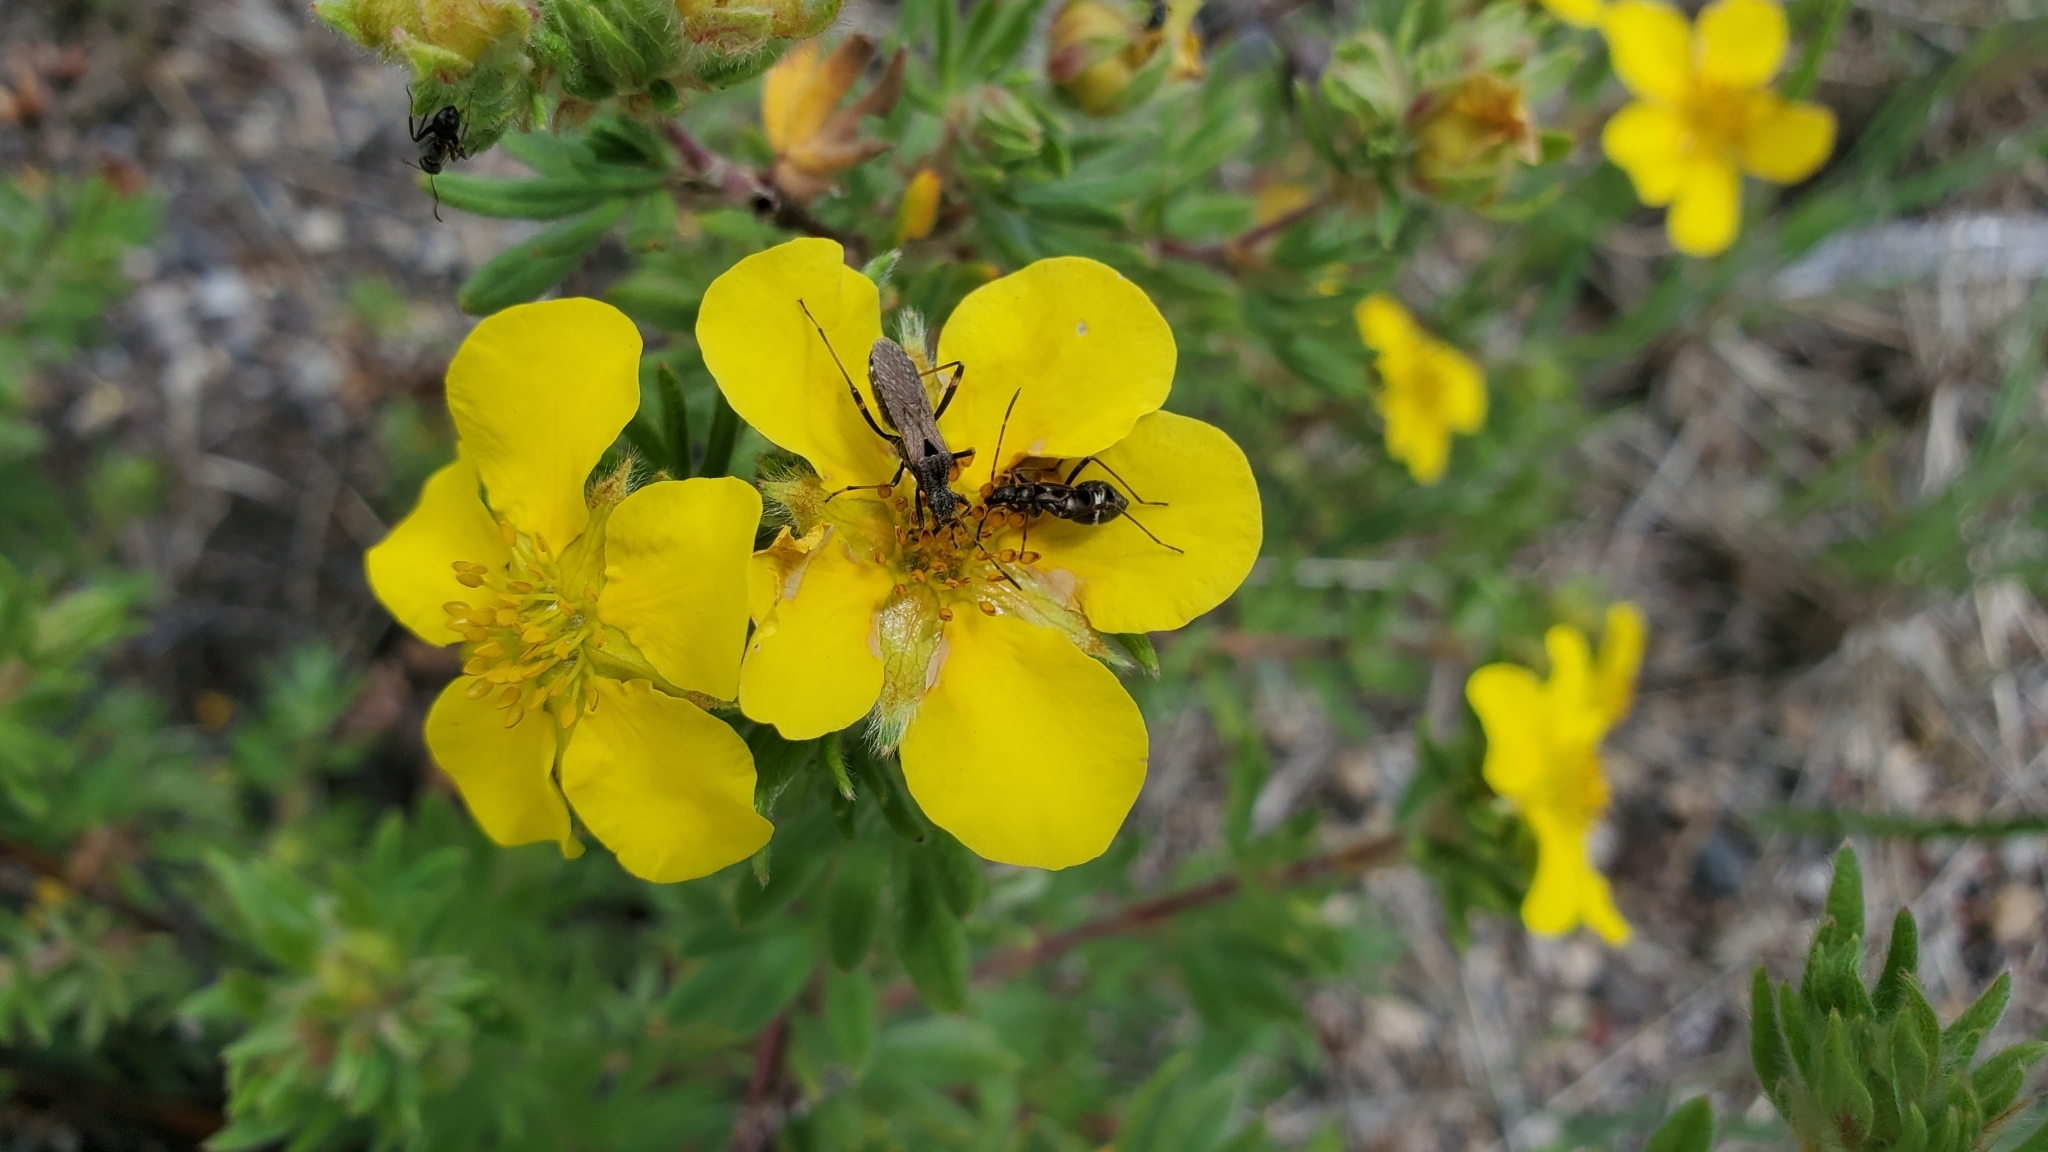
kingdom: Plantae
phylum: Tracheophyta
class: Magnoliopsida
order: Rosales
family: Rosaceae
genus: Dasiphora
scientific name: Dasiphora fruticosa
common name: Shrubby cinquefoil
